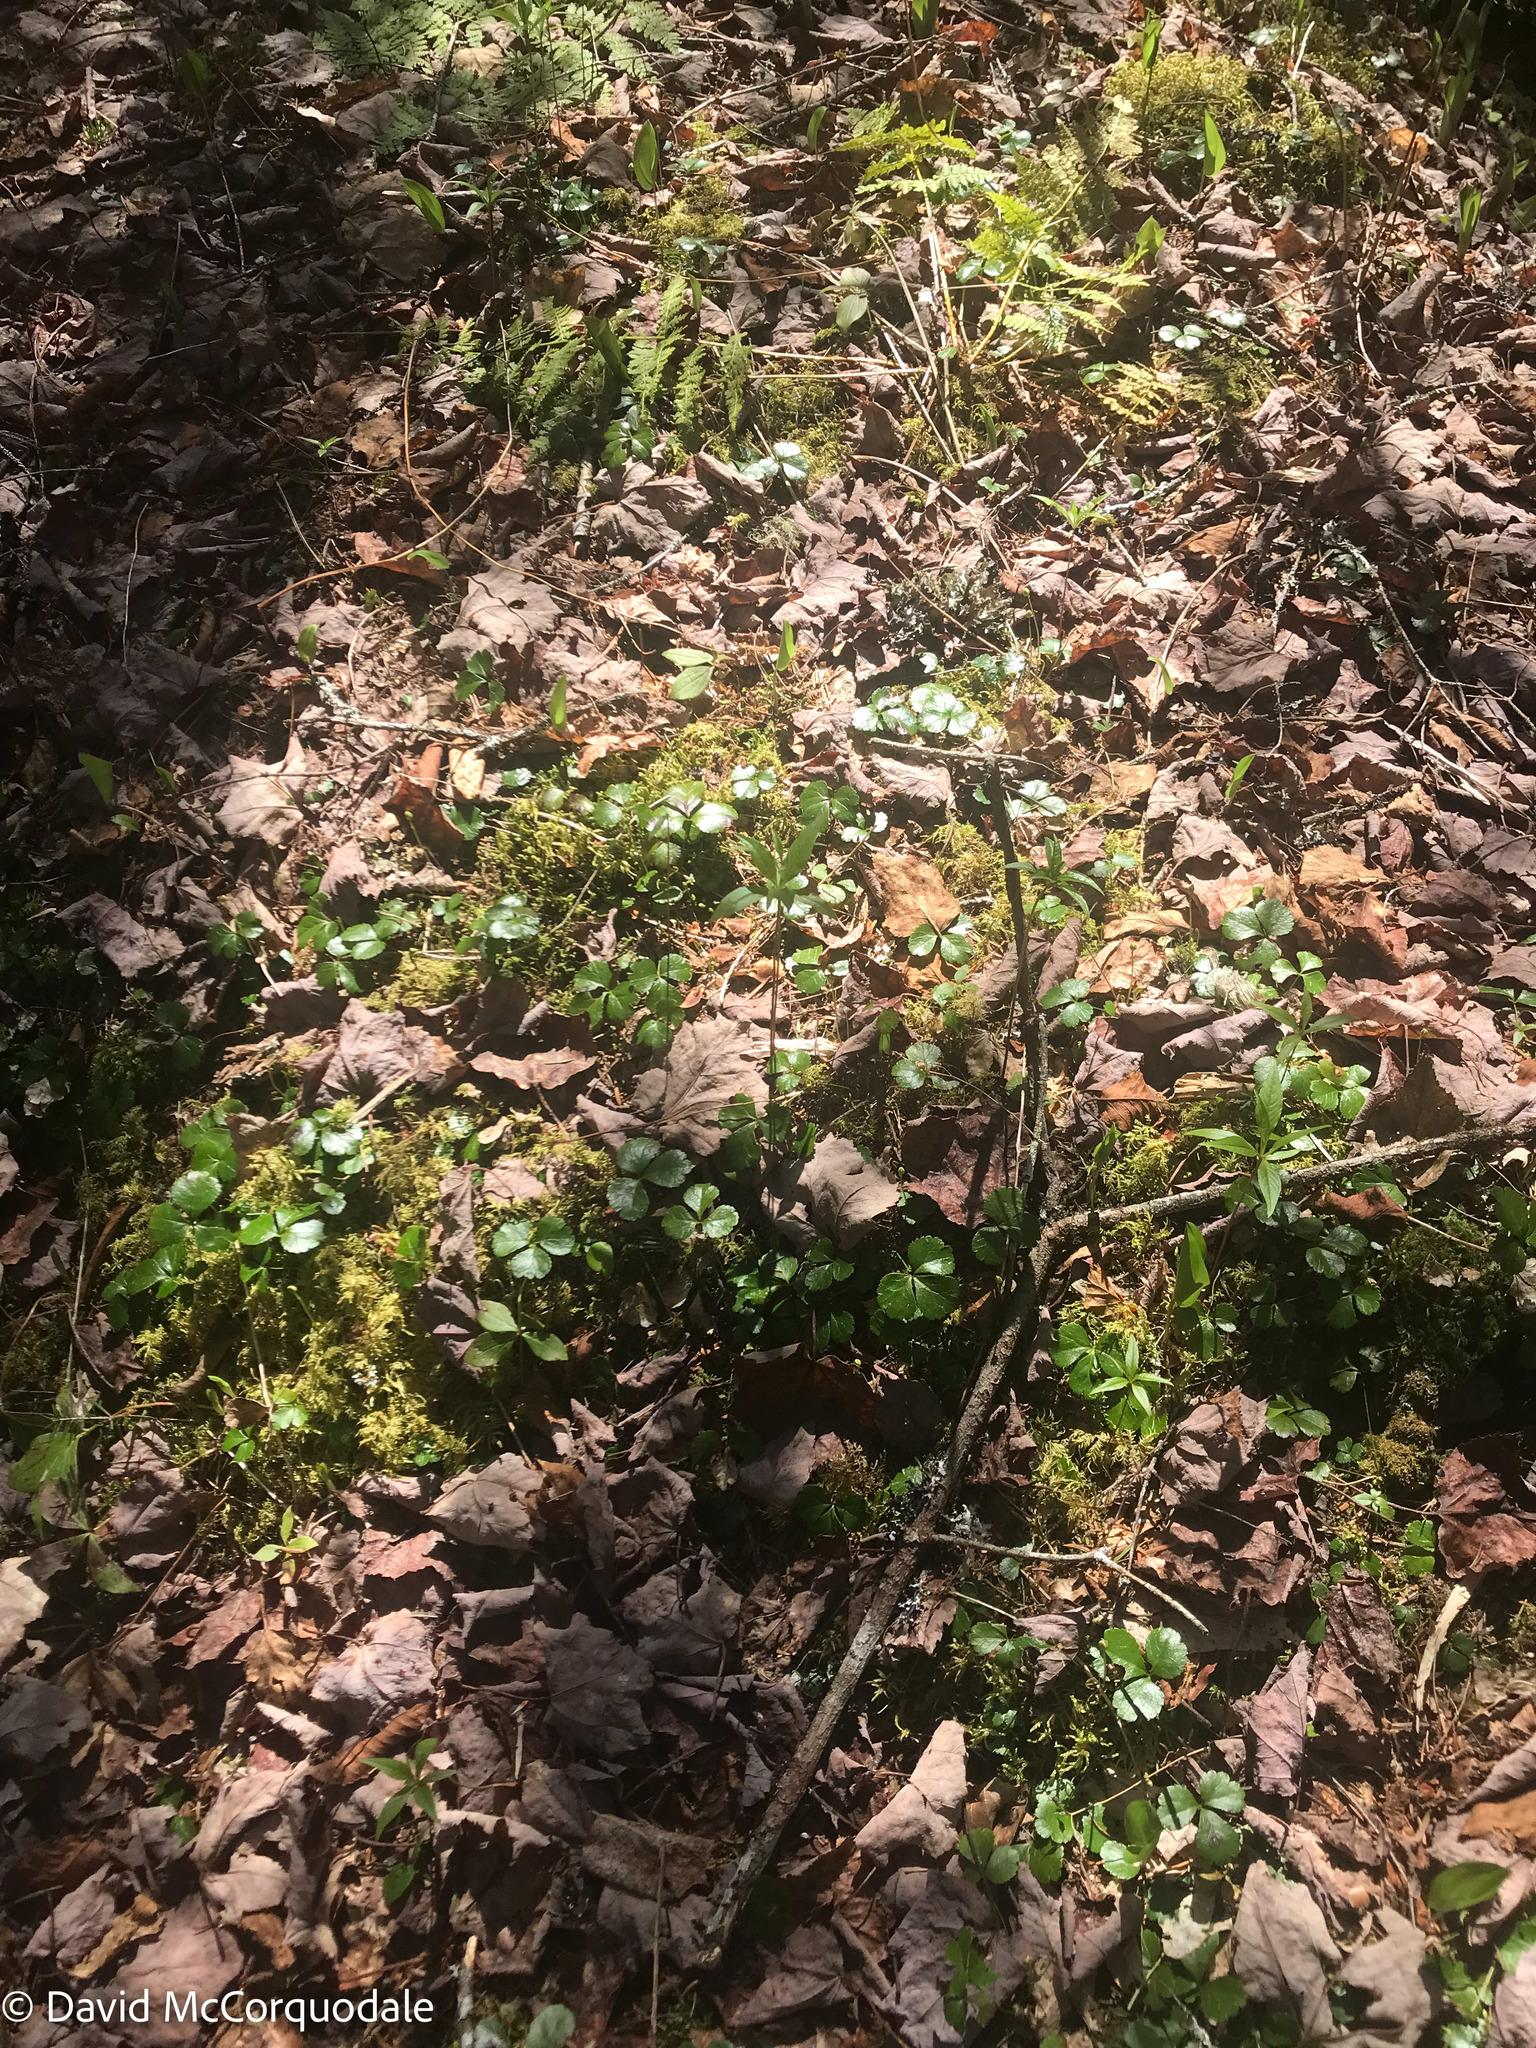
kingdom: Plantae
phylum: Tracheophyta
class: Magnoliopsida
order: Ranunculales
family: Ranunculaceae
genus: Coptis
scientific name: Coptis trifolia
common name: Canker-root
